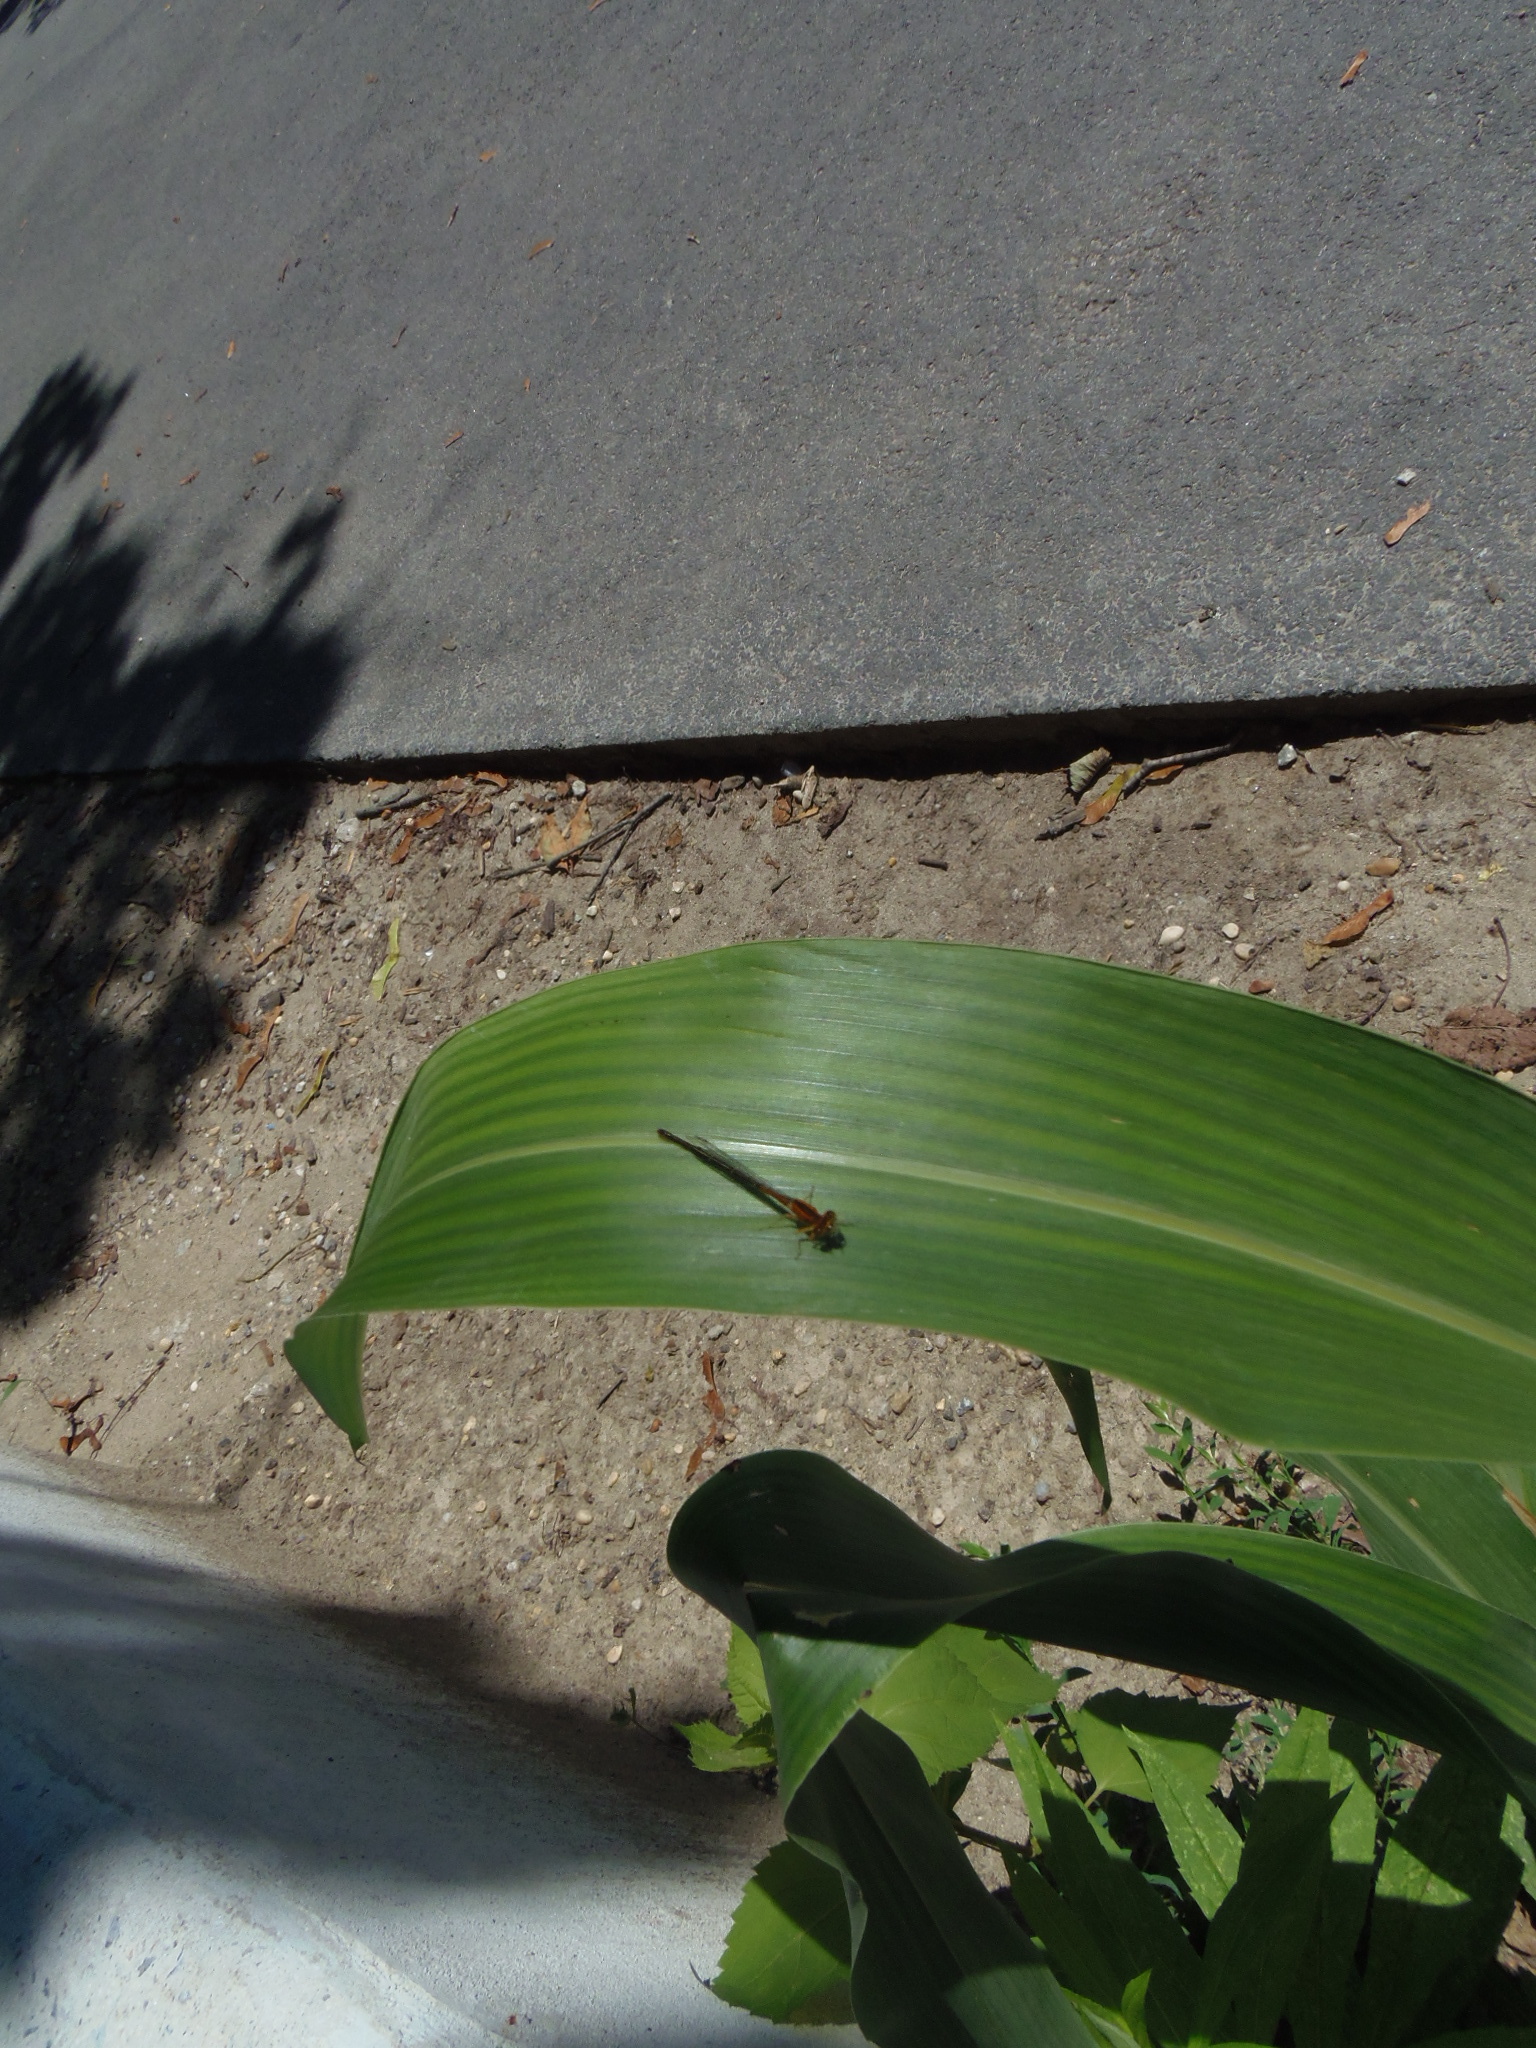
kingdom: Animalia
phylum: Arthropoda
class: Insecta
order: Odonata
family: Coenagrionidae
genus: Ischnura
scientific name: Ischnura verticalis
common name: Eastern forktail
